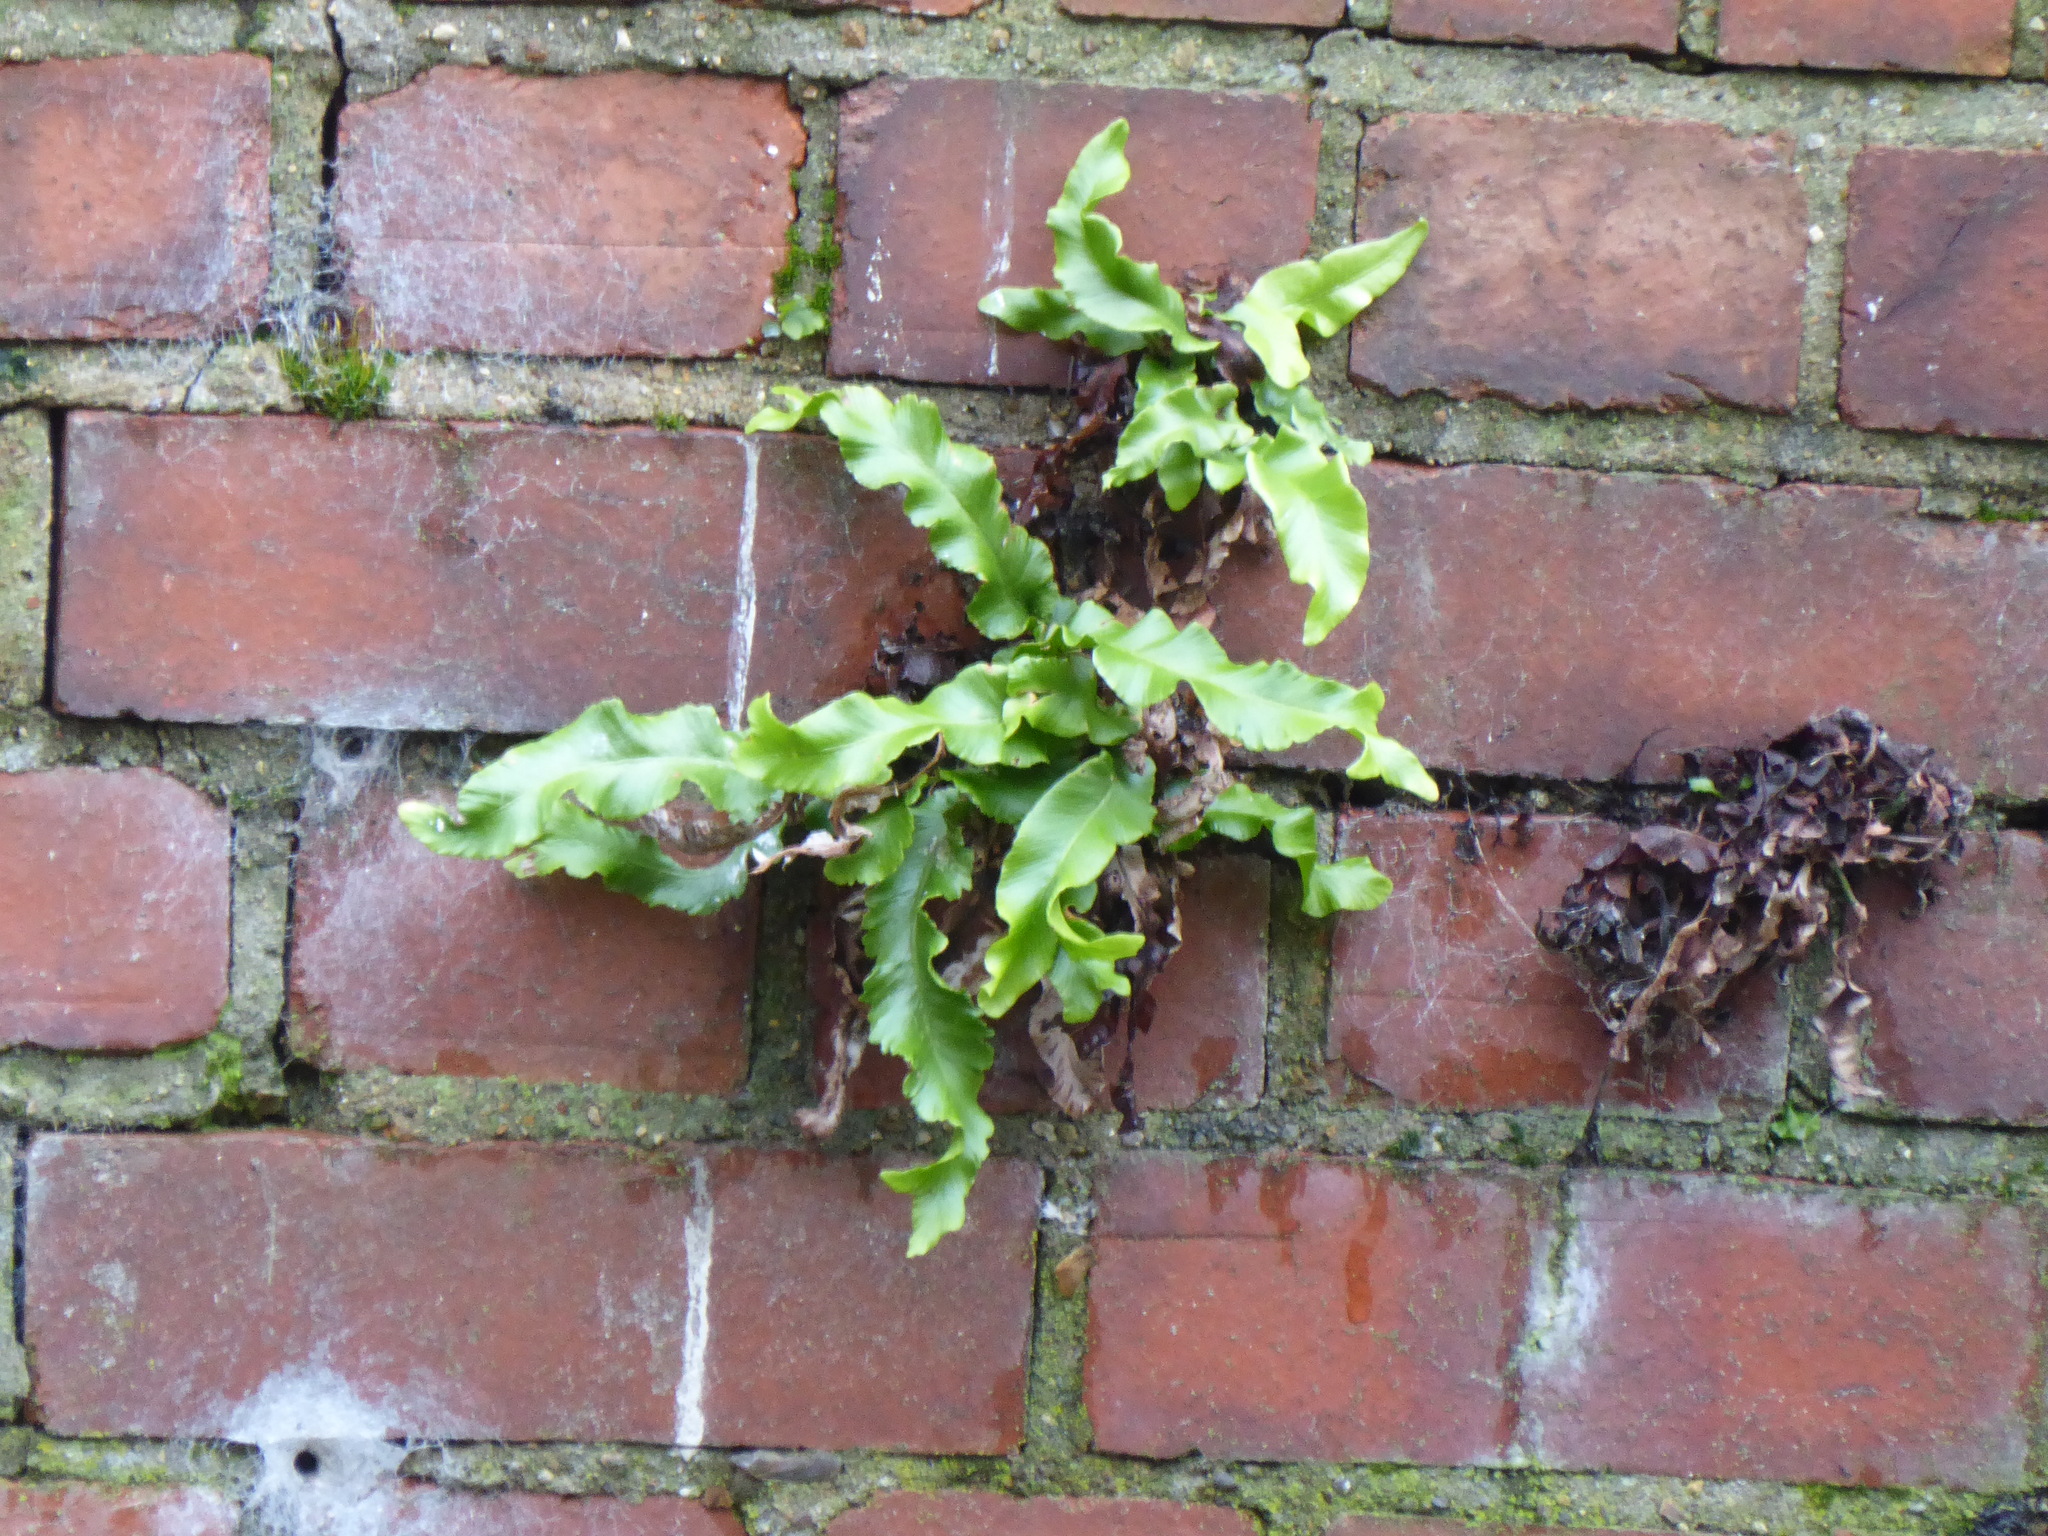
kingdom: Plantae
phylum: Tracheophyta
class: Polypodiopsida
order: Polypodiales
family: Aspleniaceae
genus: Asplenium
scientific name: Asplenium scolopendrium
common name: Hart's-tongue fern
